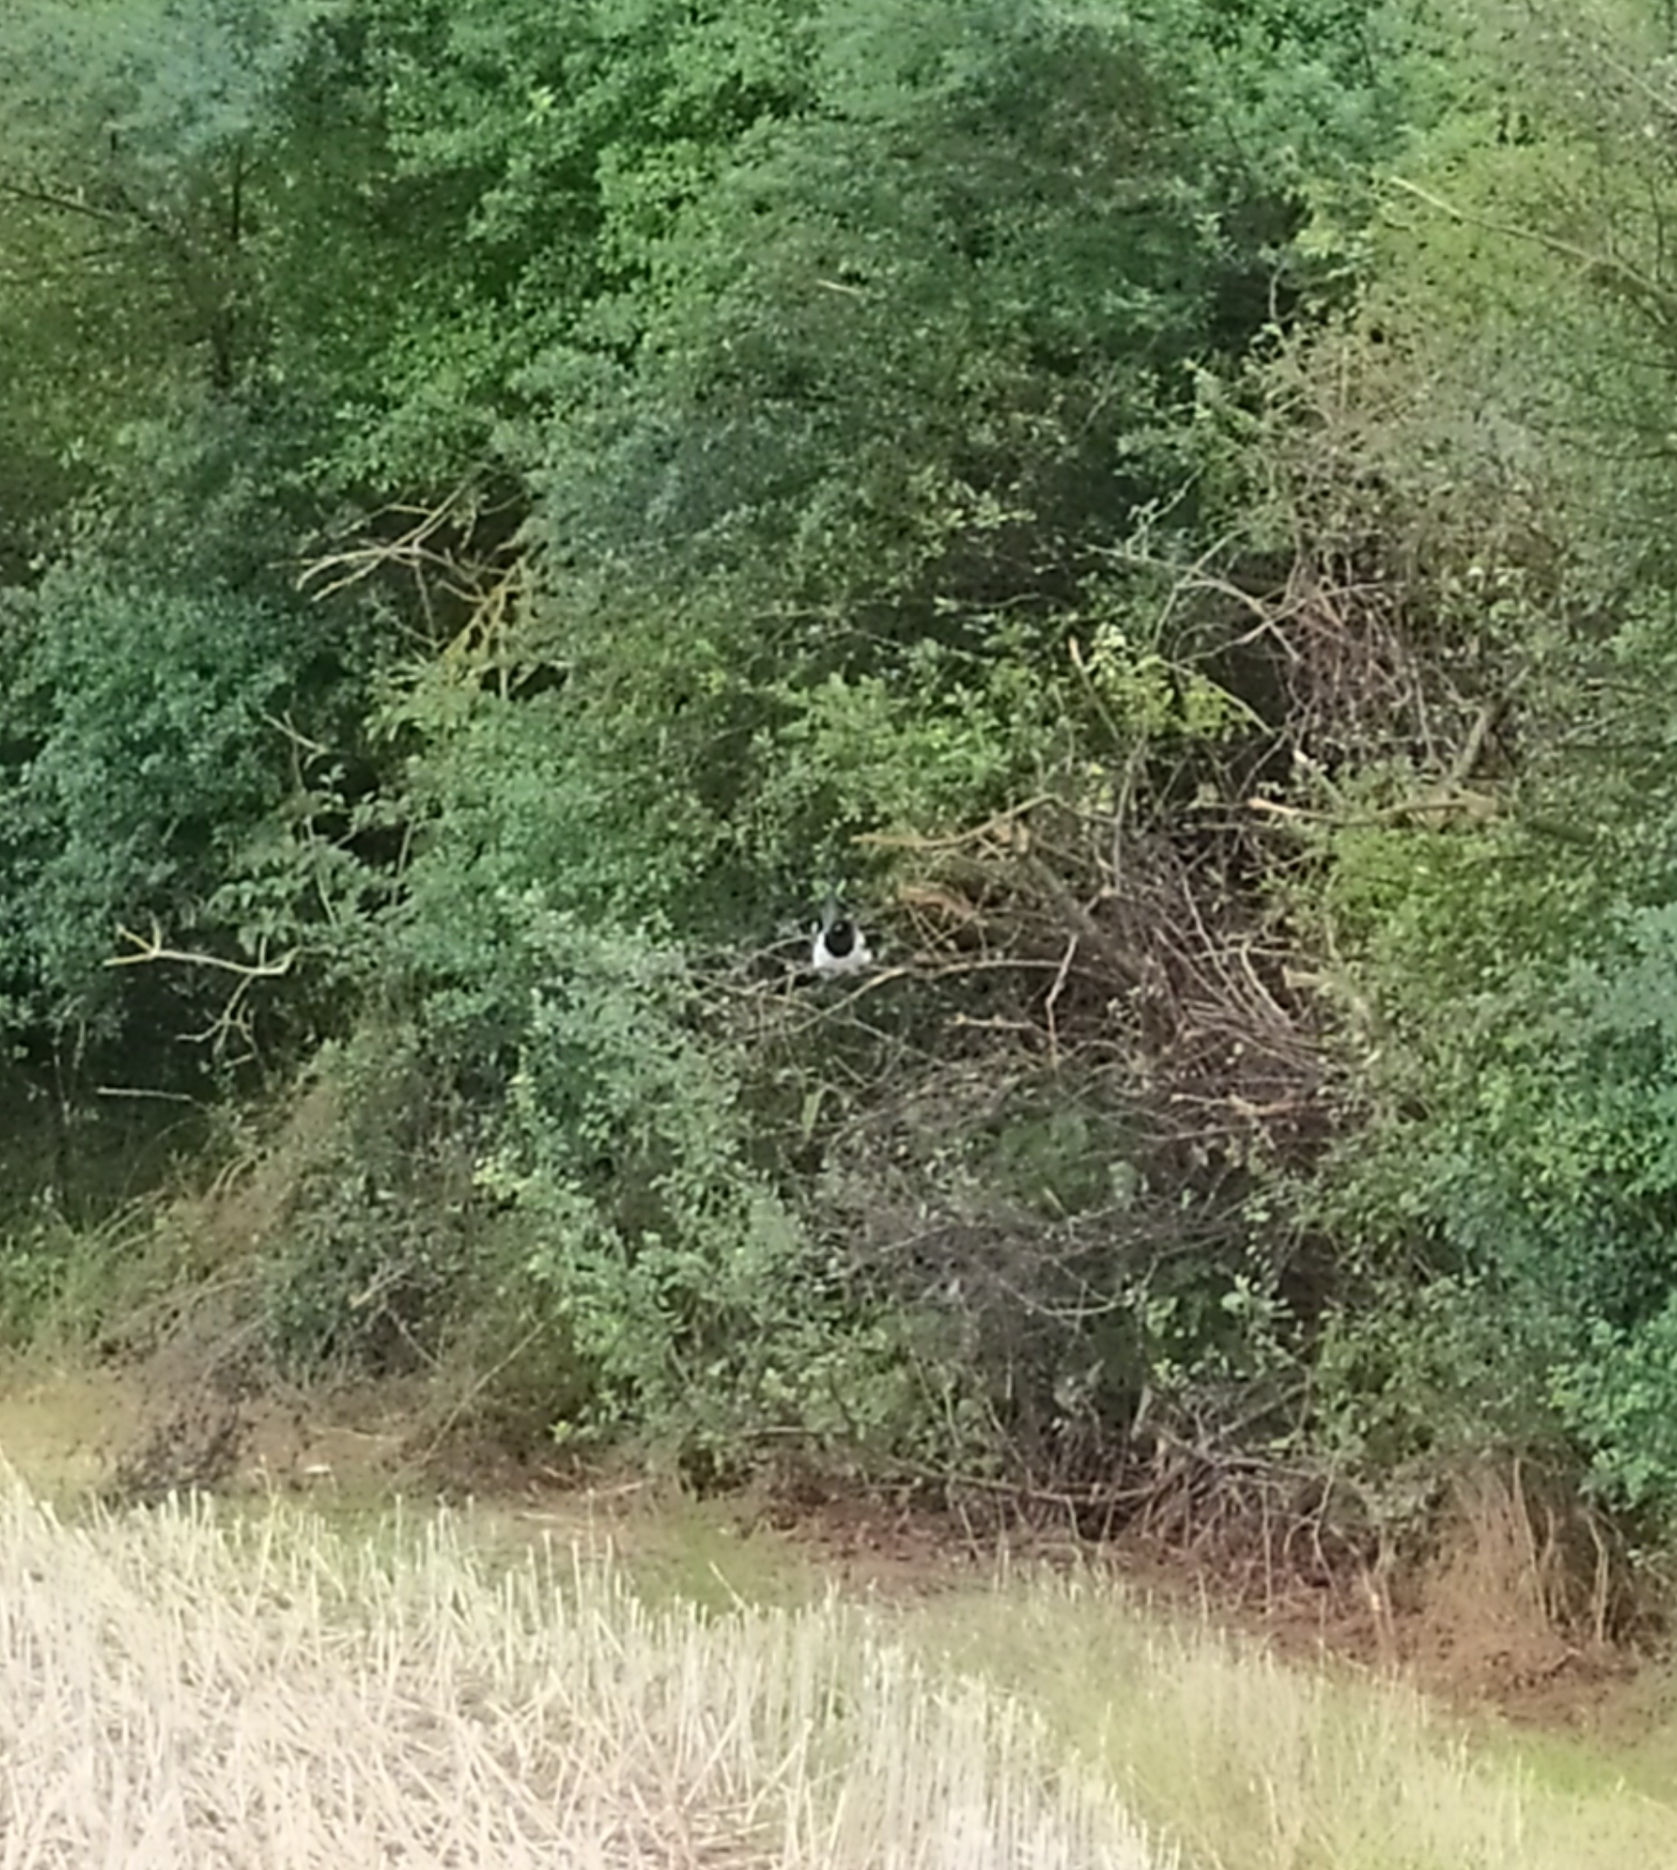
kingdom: Animalia
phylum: Chordata
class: Aves
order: Passeriformes
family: Corvidae
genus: Pica
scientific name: Pica pica
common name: Eurasian magpie
